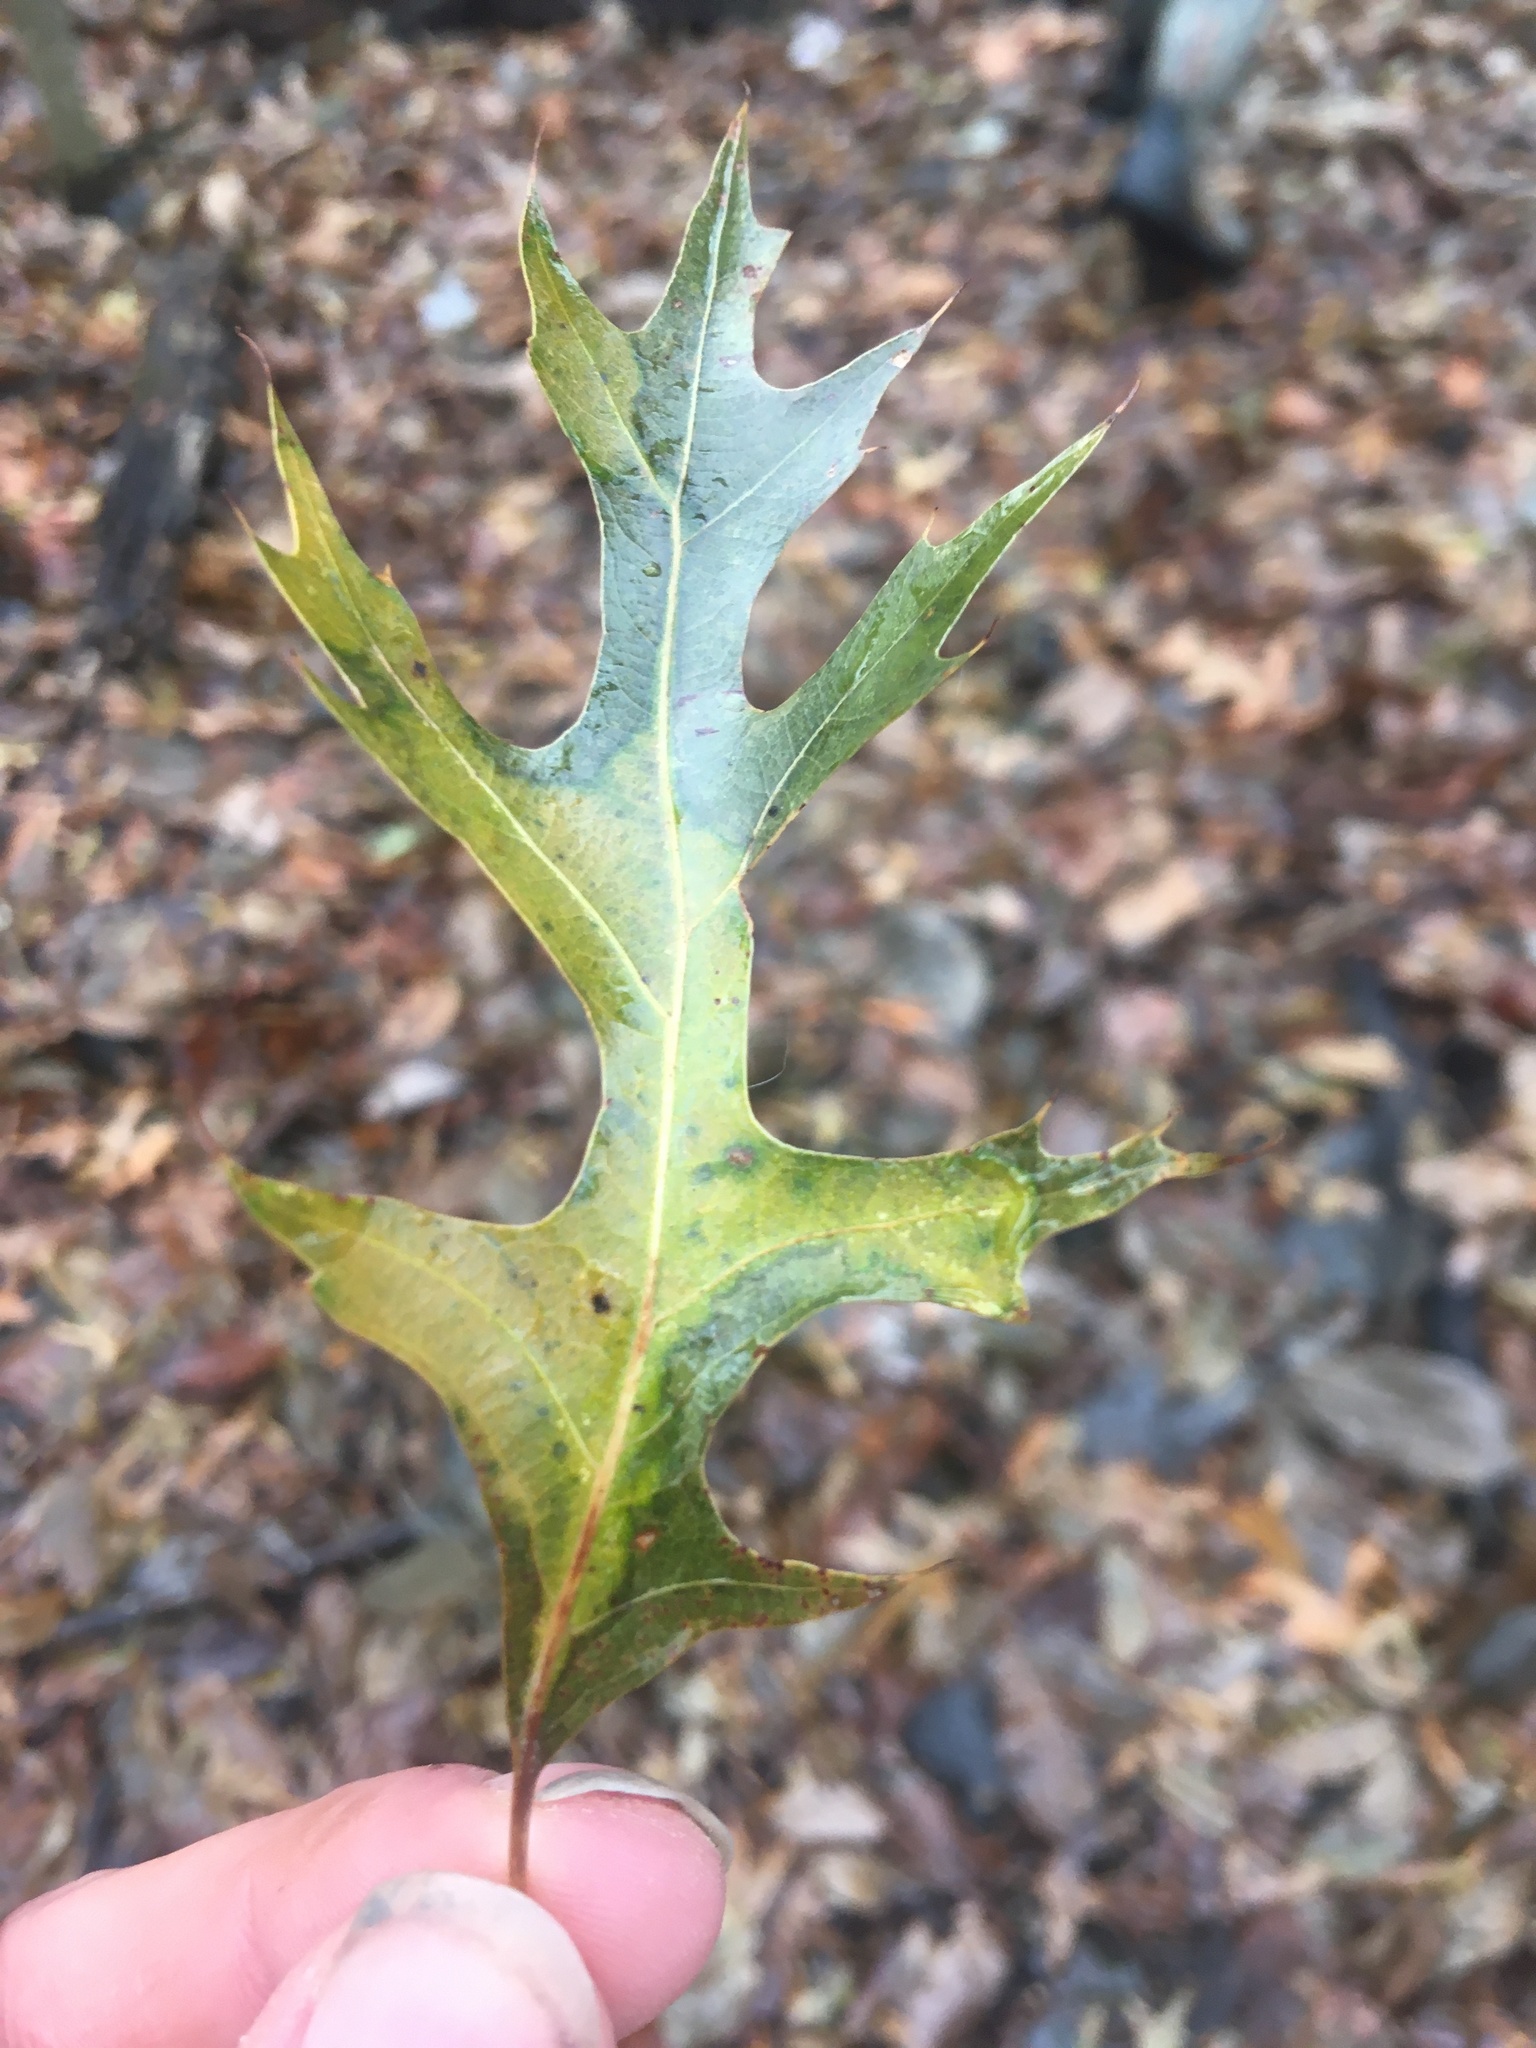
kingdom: Plantae
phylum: Tracheophyta
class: Magnoliopsida
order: Fagales
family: Fagaceae
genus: Quercus
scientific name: Quercus falcata
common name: Southern red oak
